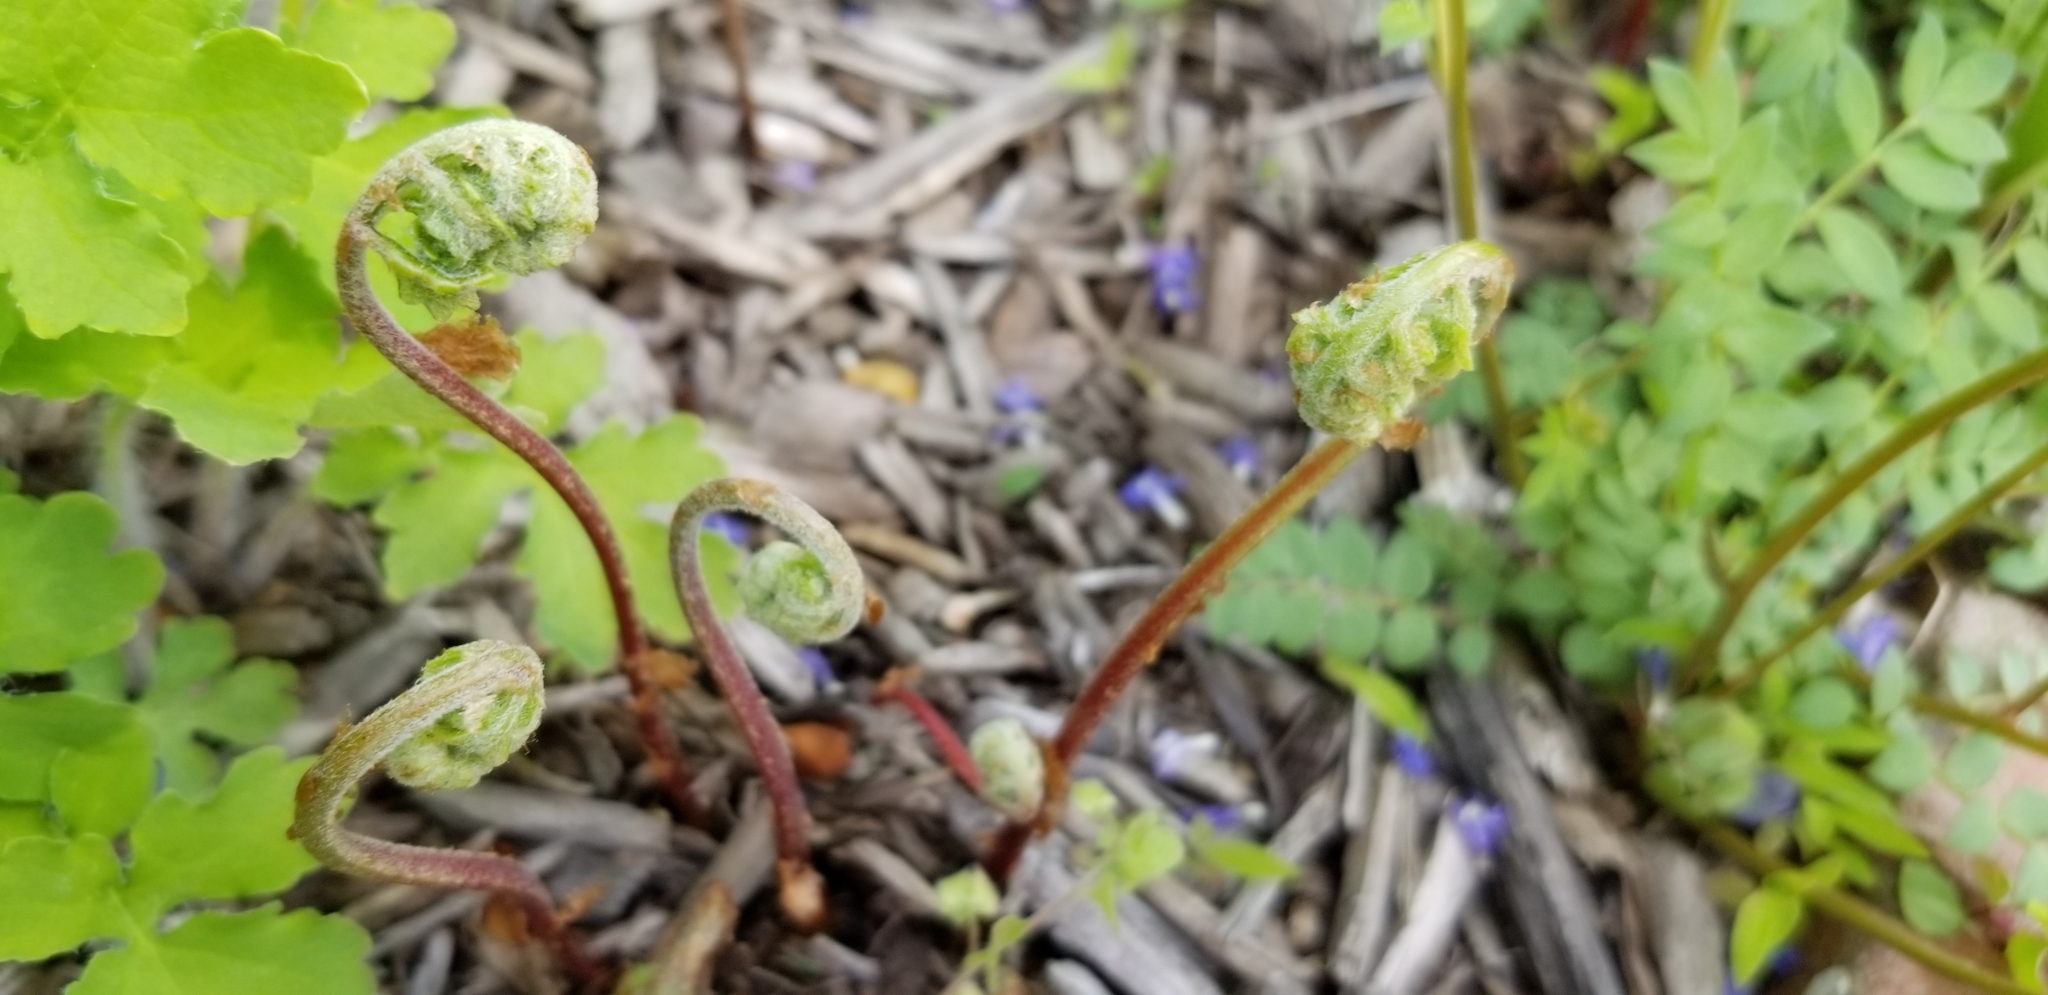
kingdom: Plantae
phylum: Tracheophyta
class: Polypodiopsida
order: Polypodiales
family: Onocleaceae
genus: Onoclea
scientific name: Onoclea sensibilis
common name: Sensitive fern
